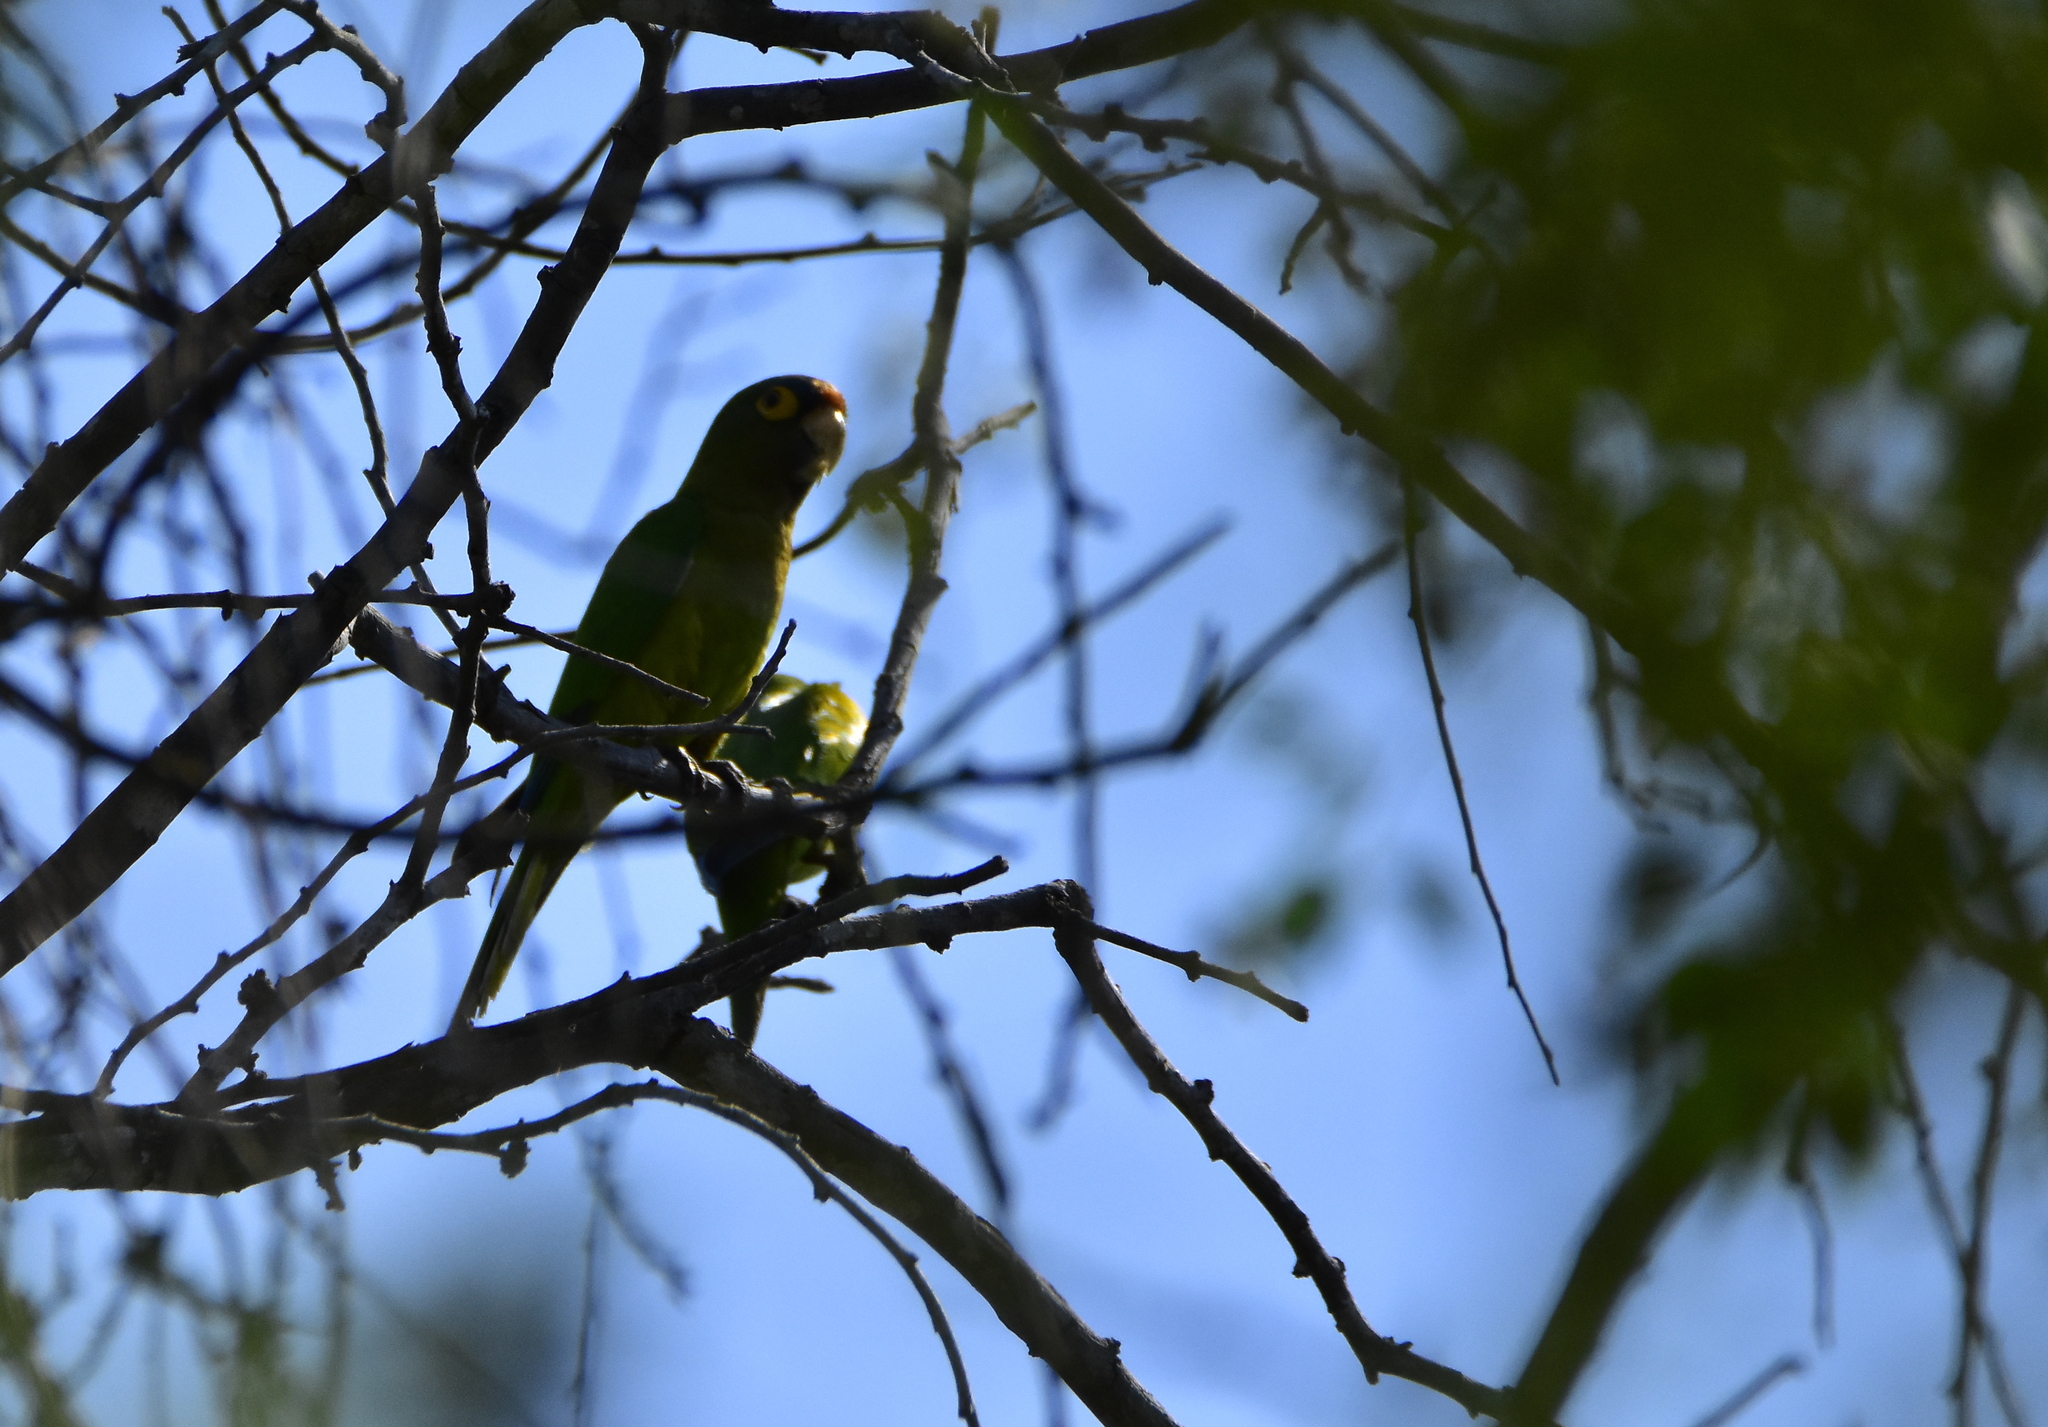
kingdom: Animalia
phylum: Chordata
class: Aves
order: Psittaciformes
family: Psittacidae
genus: Aratinga
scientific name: Aratinga canicularis
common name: Orange-fronted parakeet
